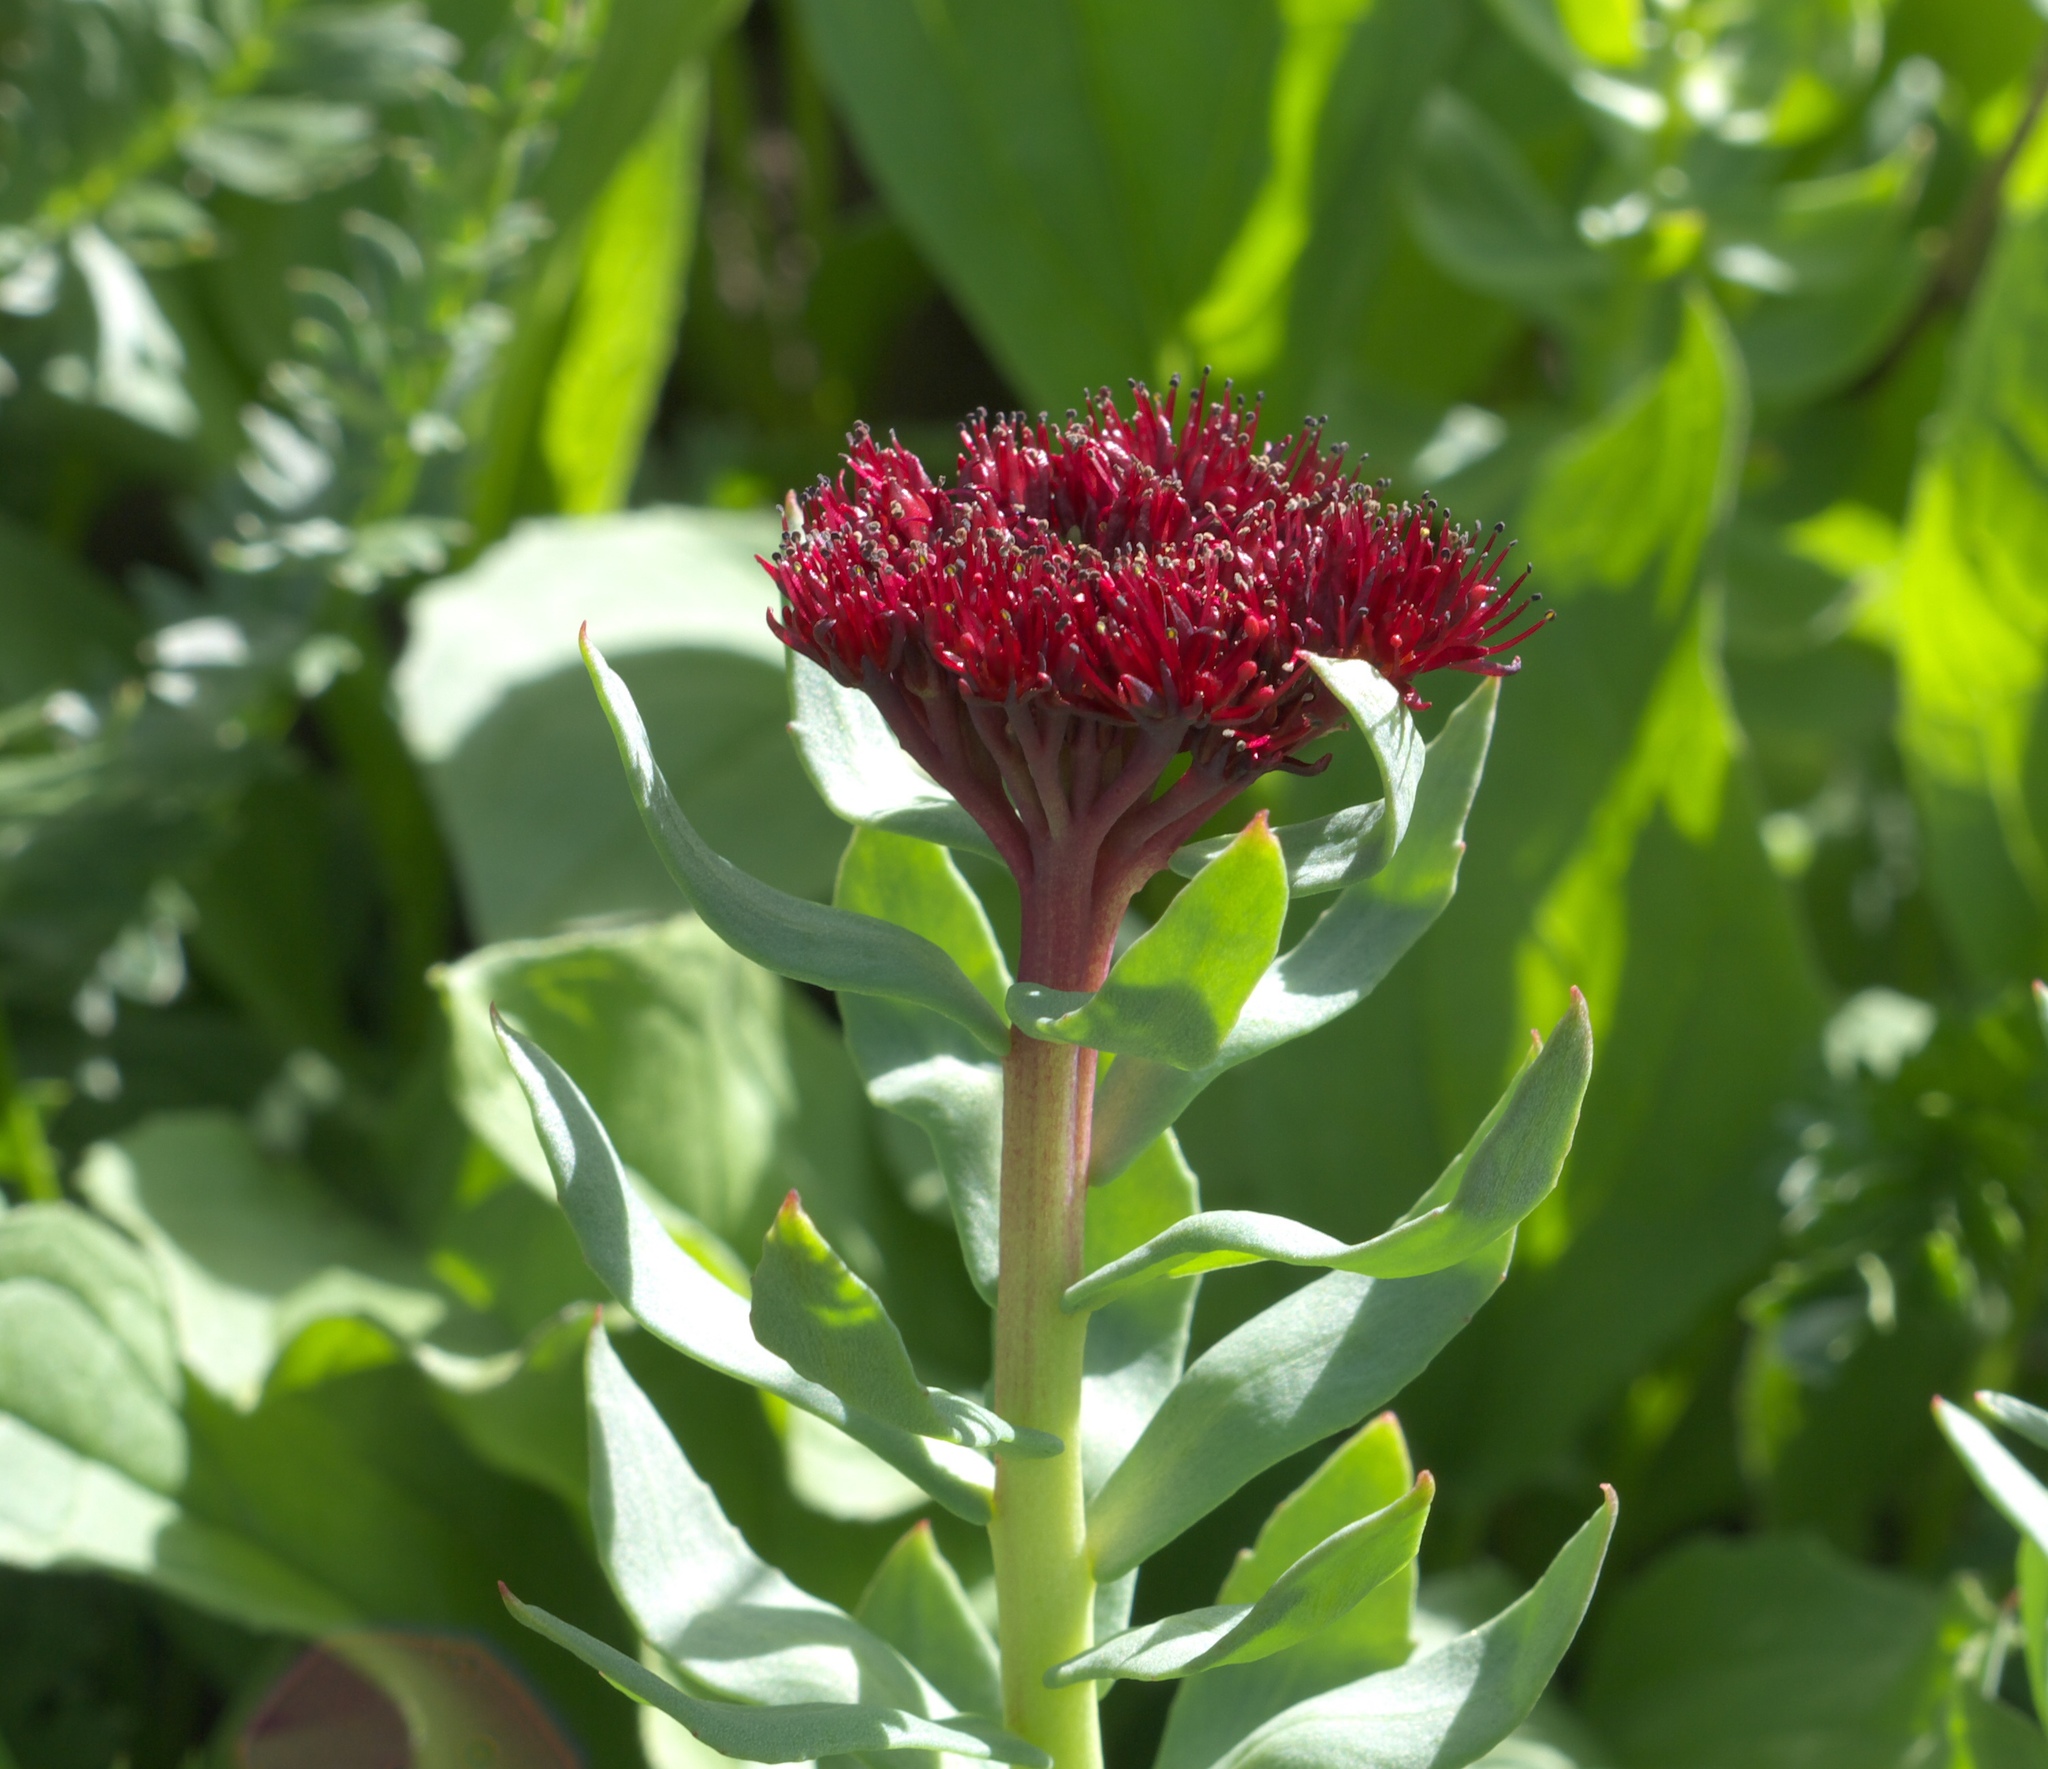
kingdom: Plantae
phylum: Tracheophyta
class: Magnoliopsida
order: Saxifragales
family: Crassulaceae
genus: Rhodiola
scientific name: Rhodiola integrifolia
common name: Western roseroot
